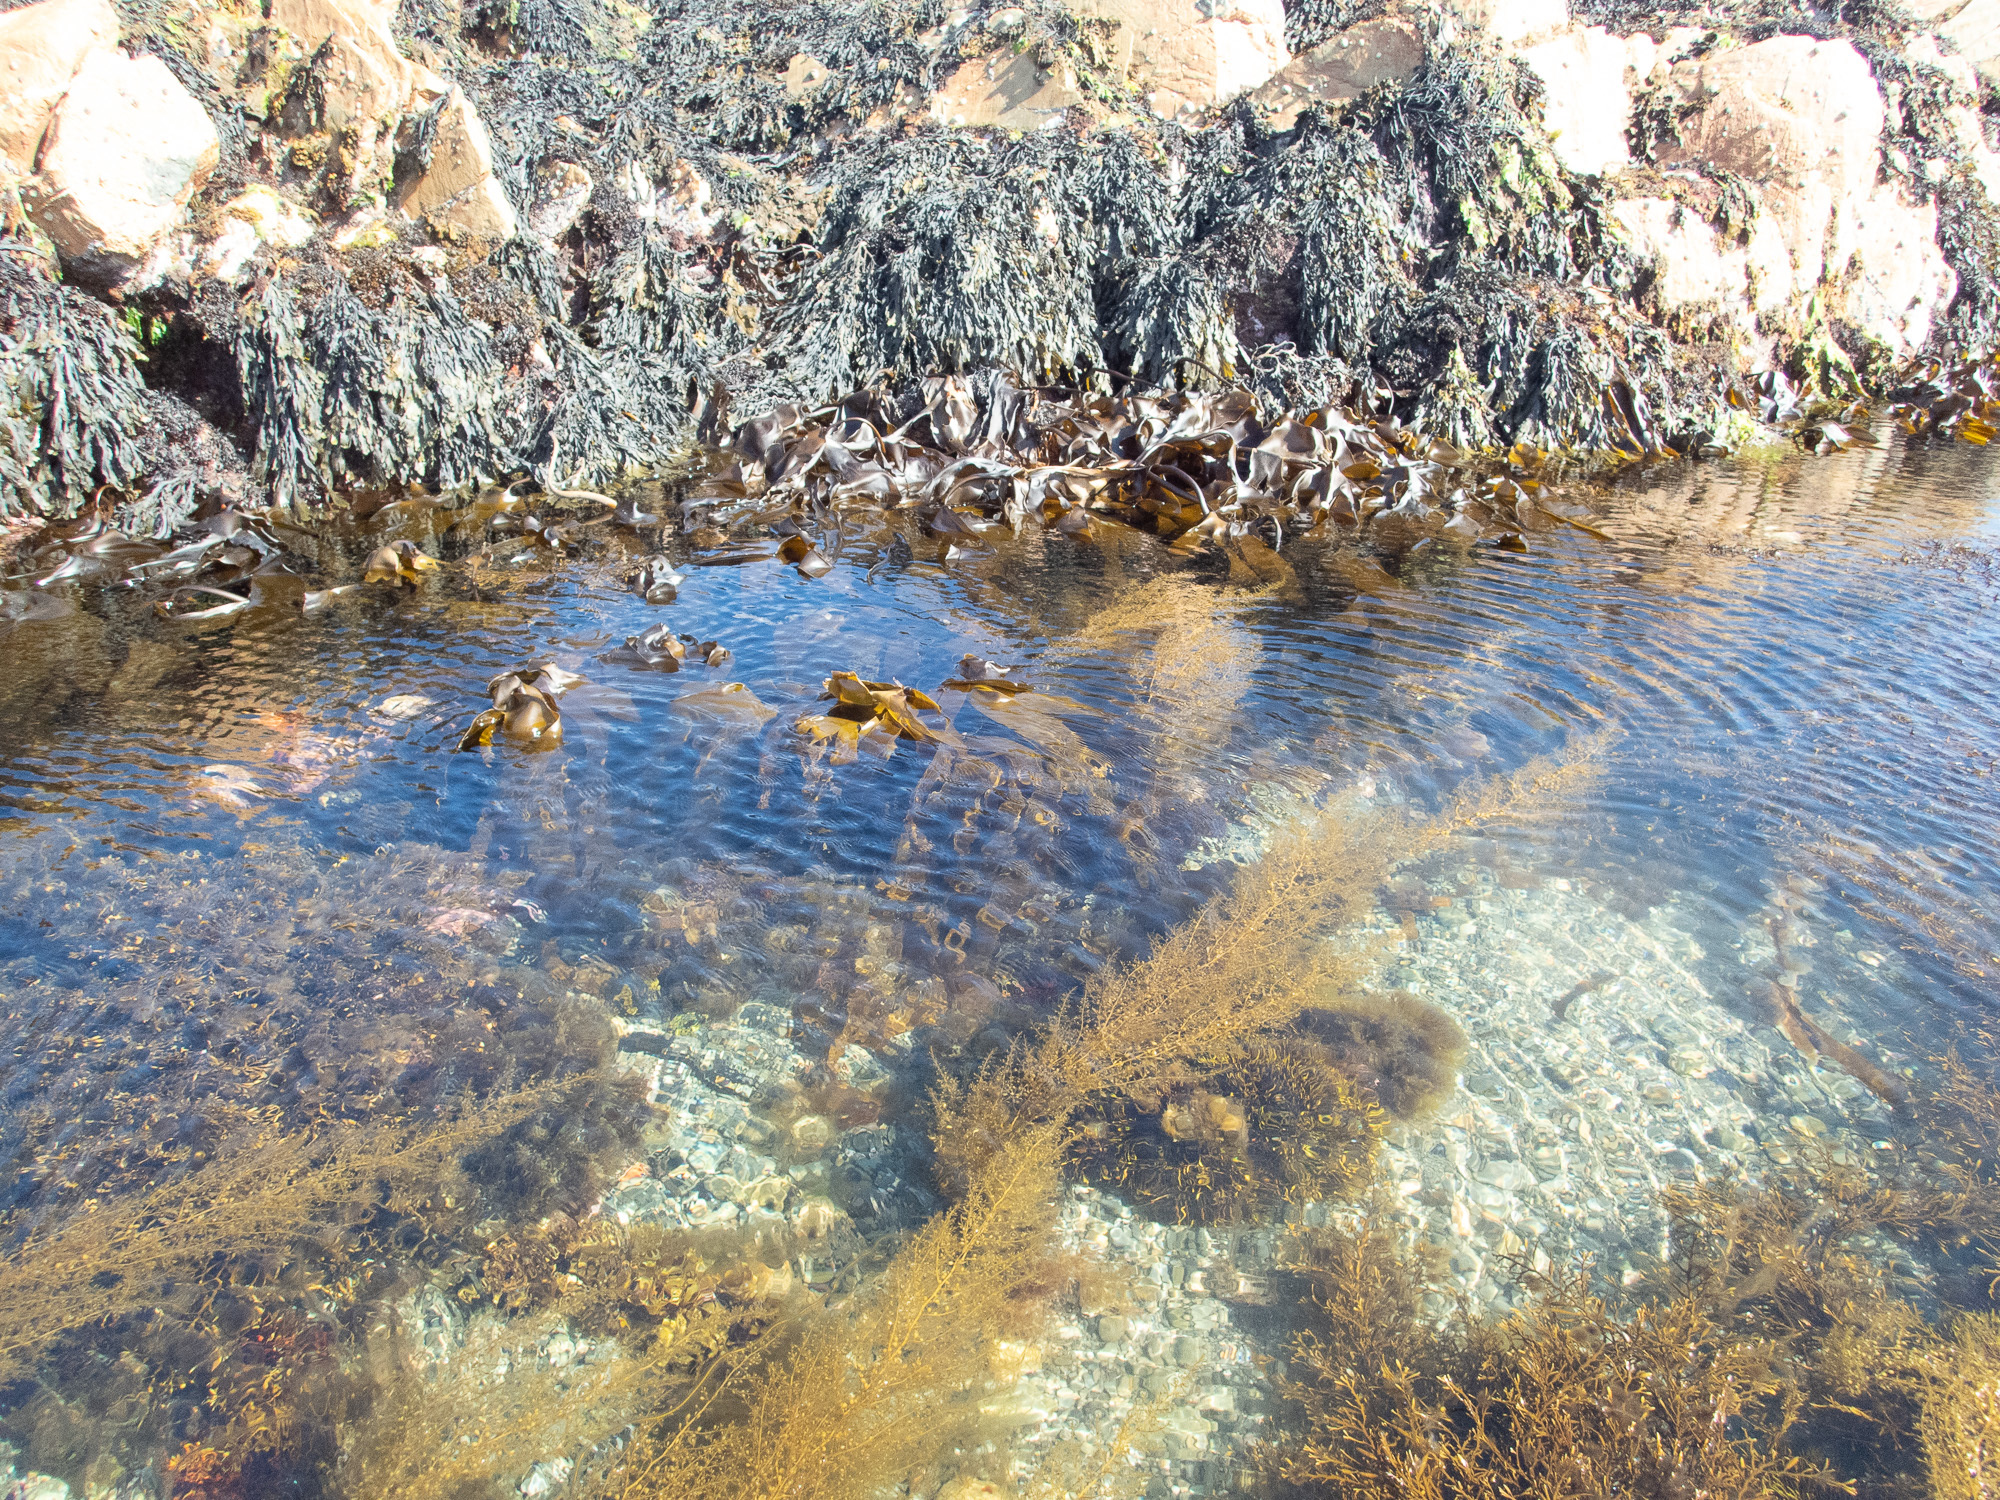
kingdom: Chromista
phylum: Ochrophyta
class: Phaeophyceae
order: Fucales
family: Sargassaceae
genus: Sargassum
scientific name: Sargassum muticum
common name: Japweed
